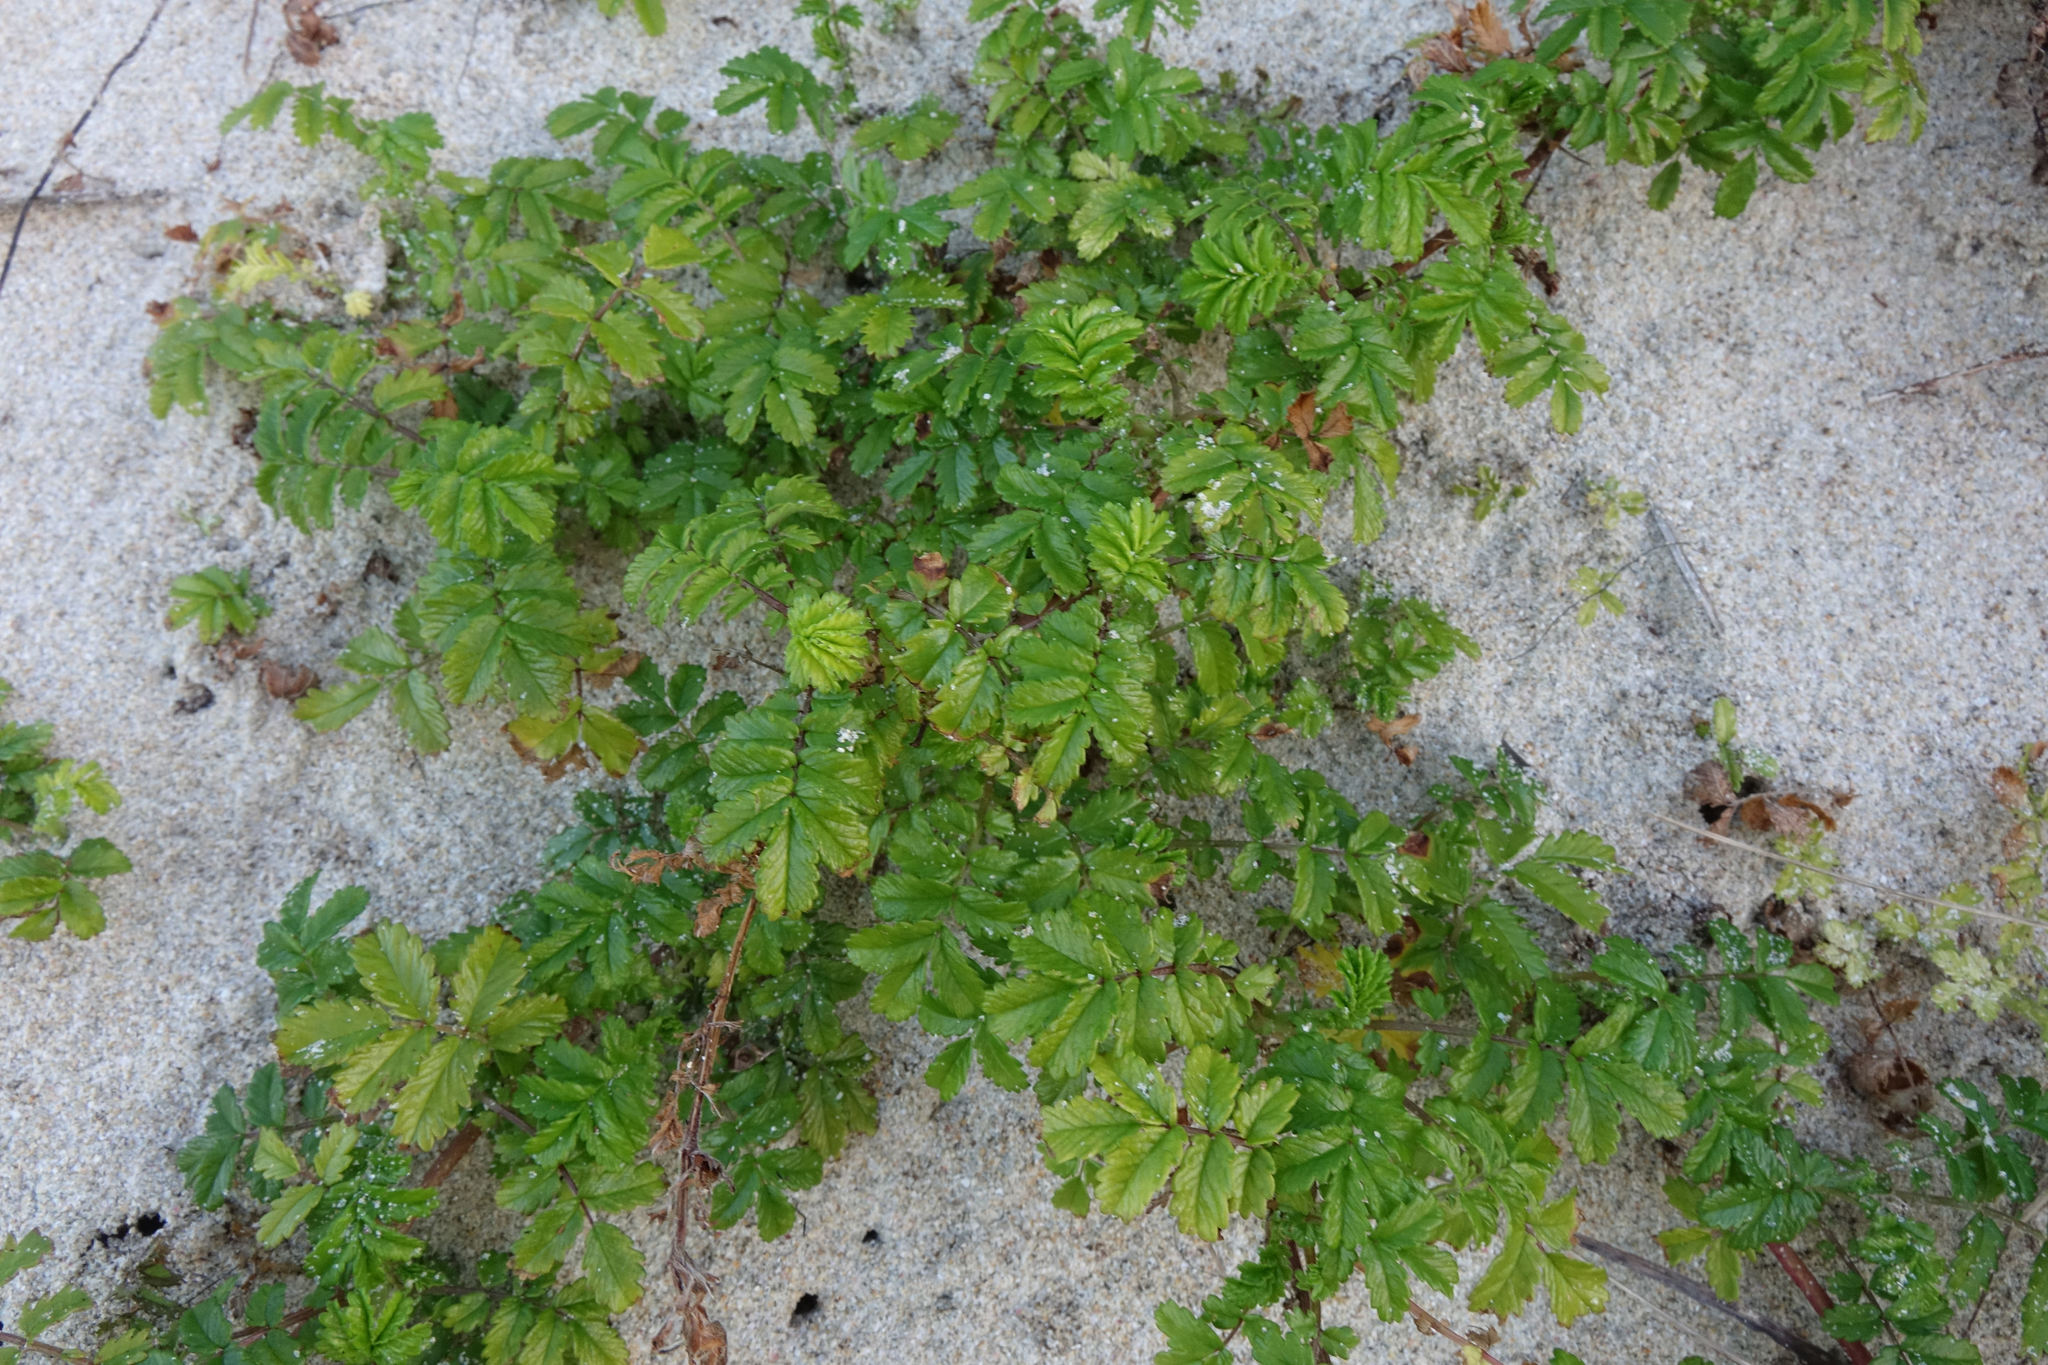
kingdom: Plantae
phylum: Tracheophyta
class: Magnoliopsida
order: Rosales
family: Rosaceae
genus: Acaena
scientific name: Acaena novae-zelandiae
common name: Pirri-pirri-bur
